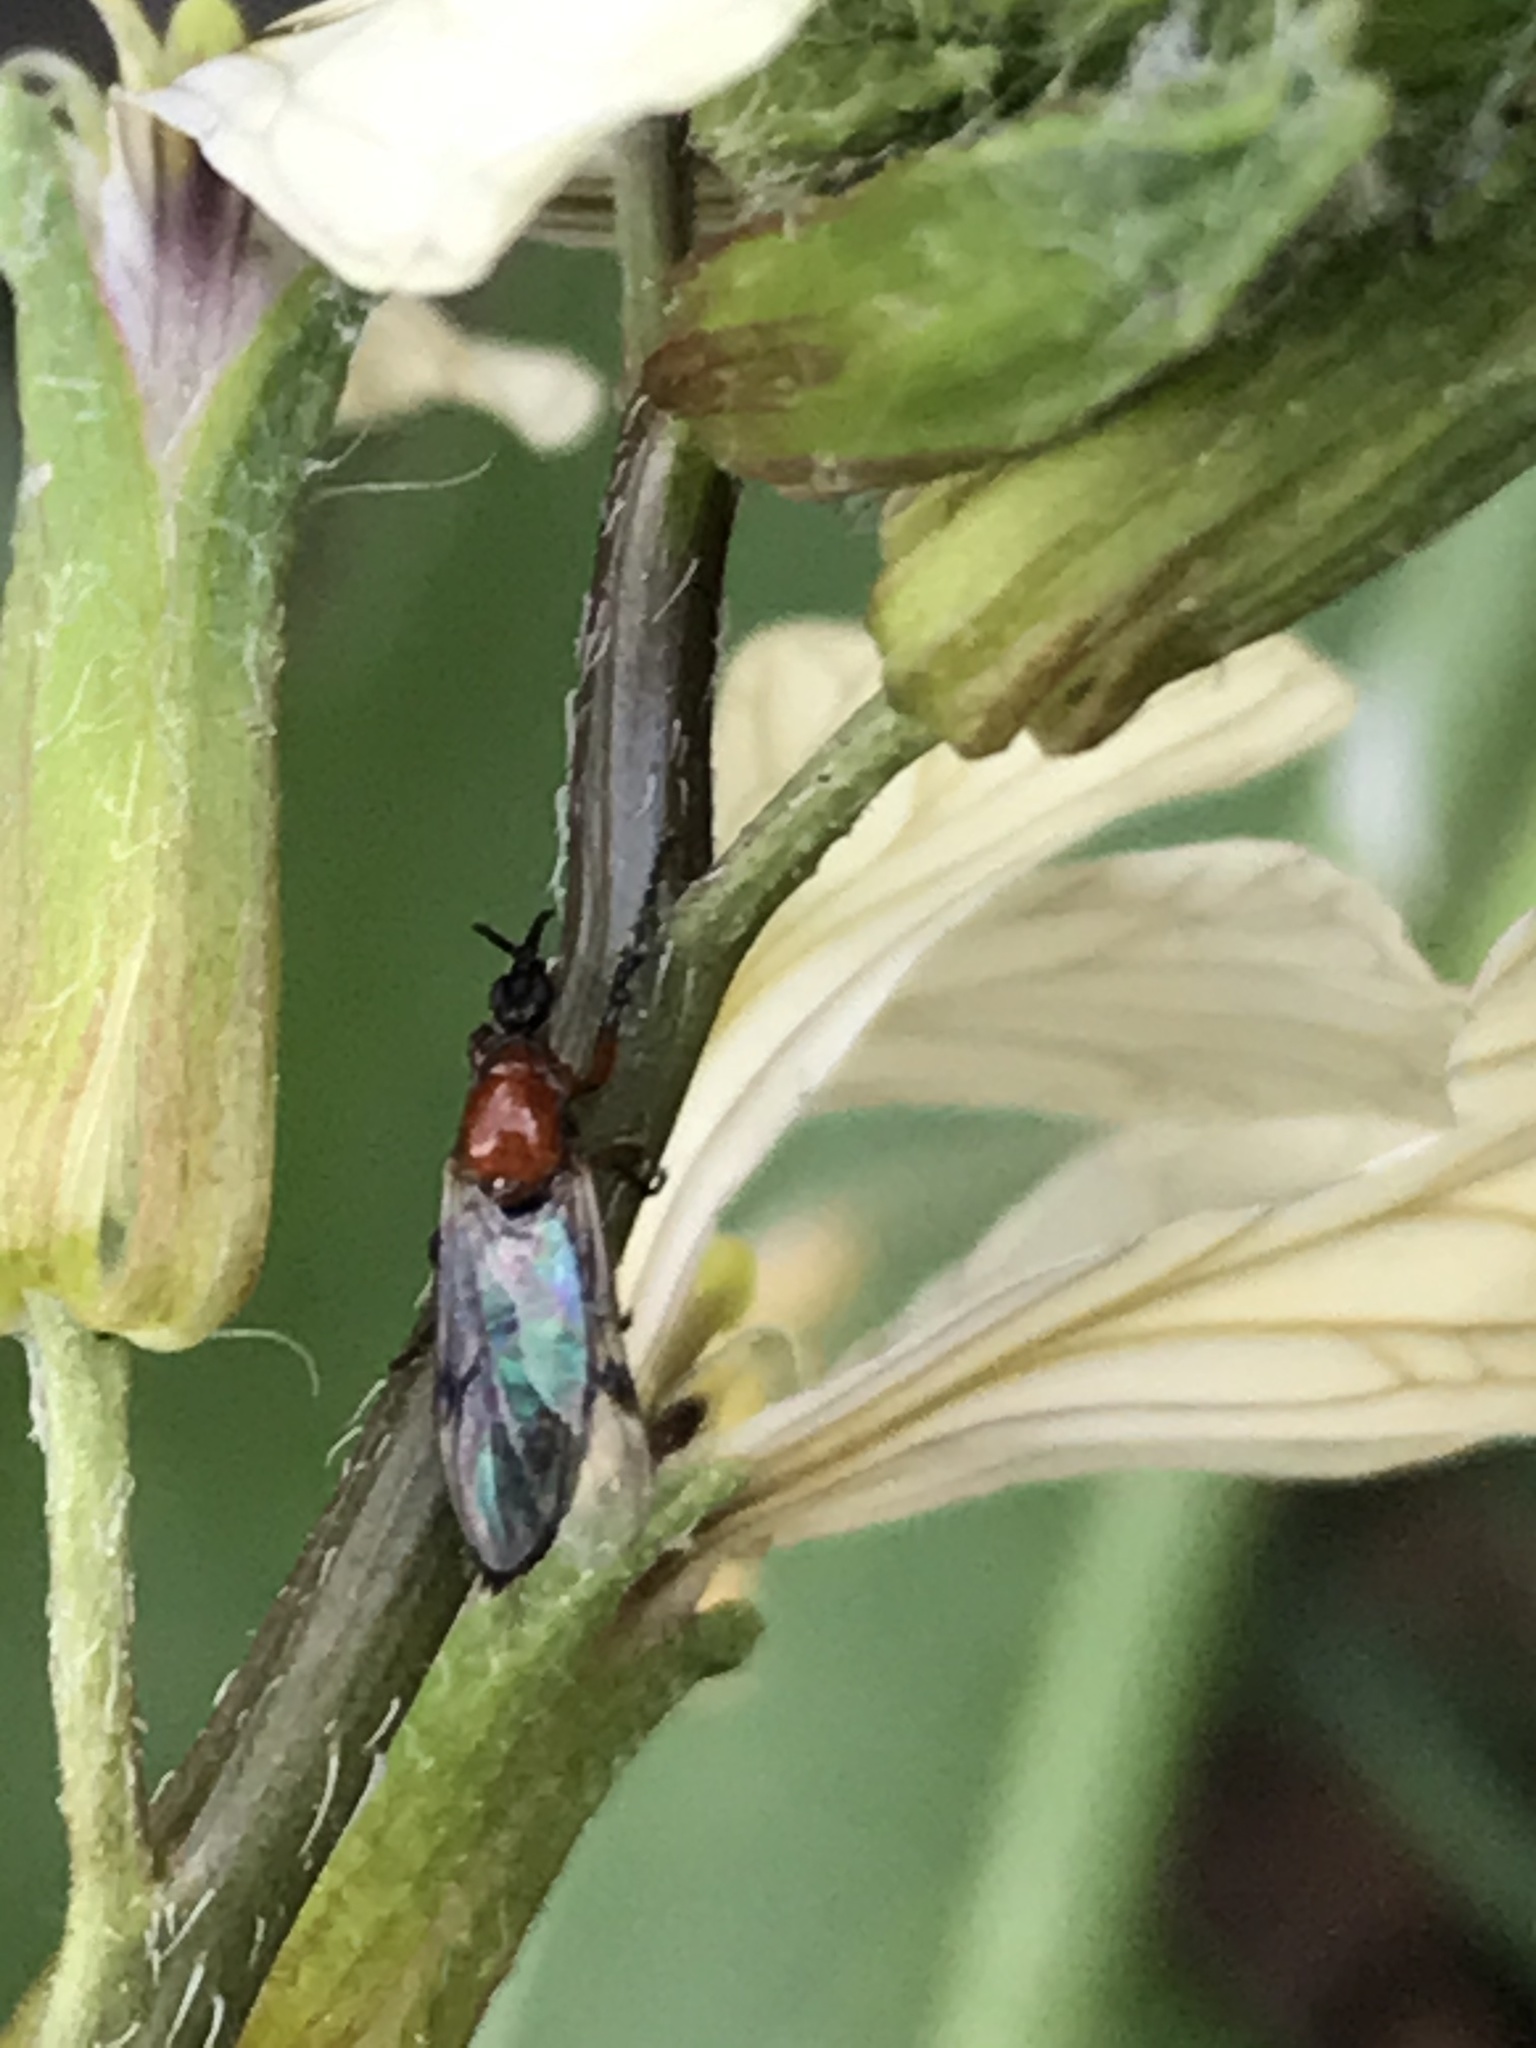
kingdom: Animalia
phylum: Arthropoda
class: Insecta
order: Diptera
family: Bibionidae
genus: Dilophus
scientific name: Dilophus
